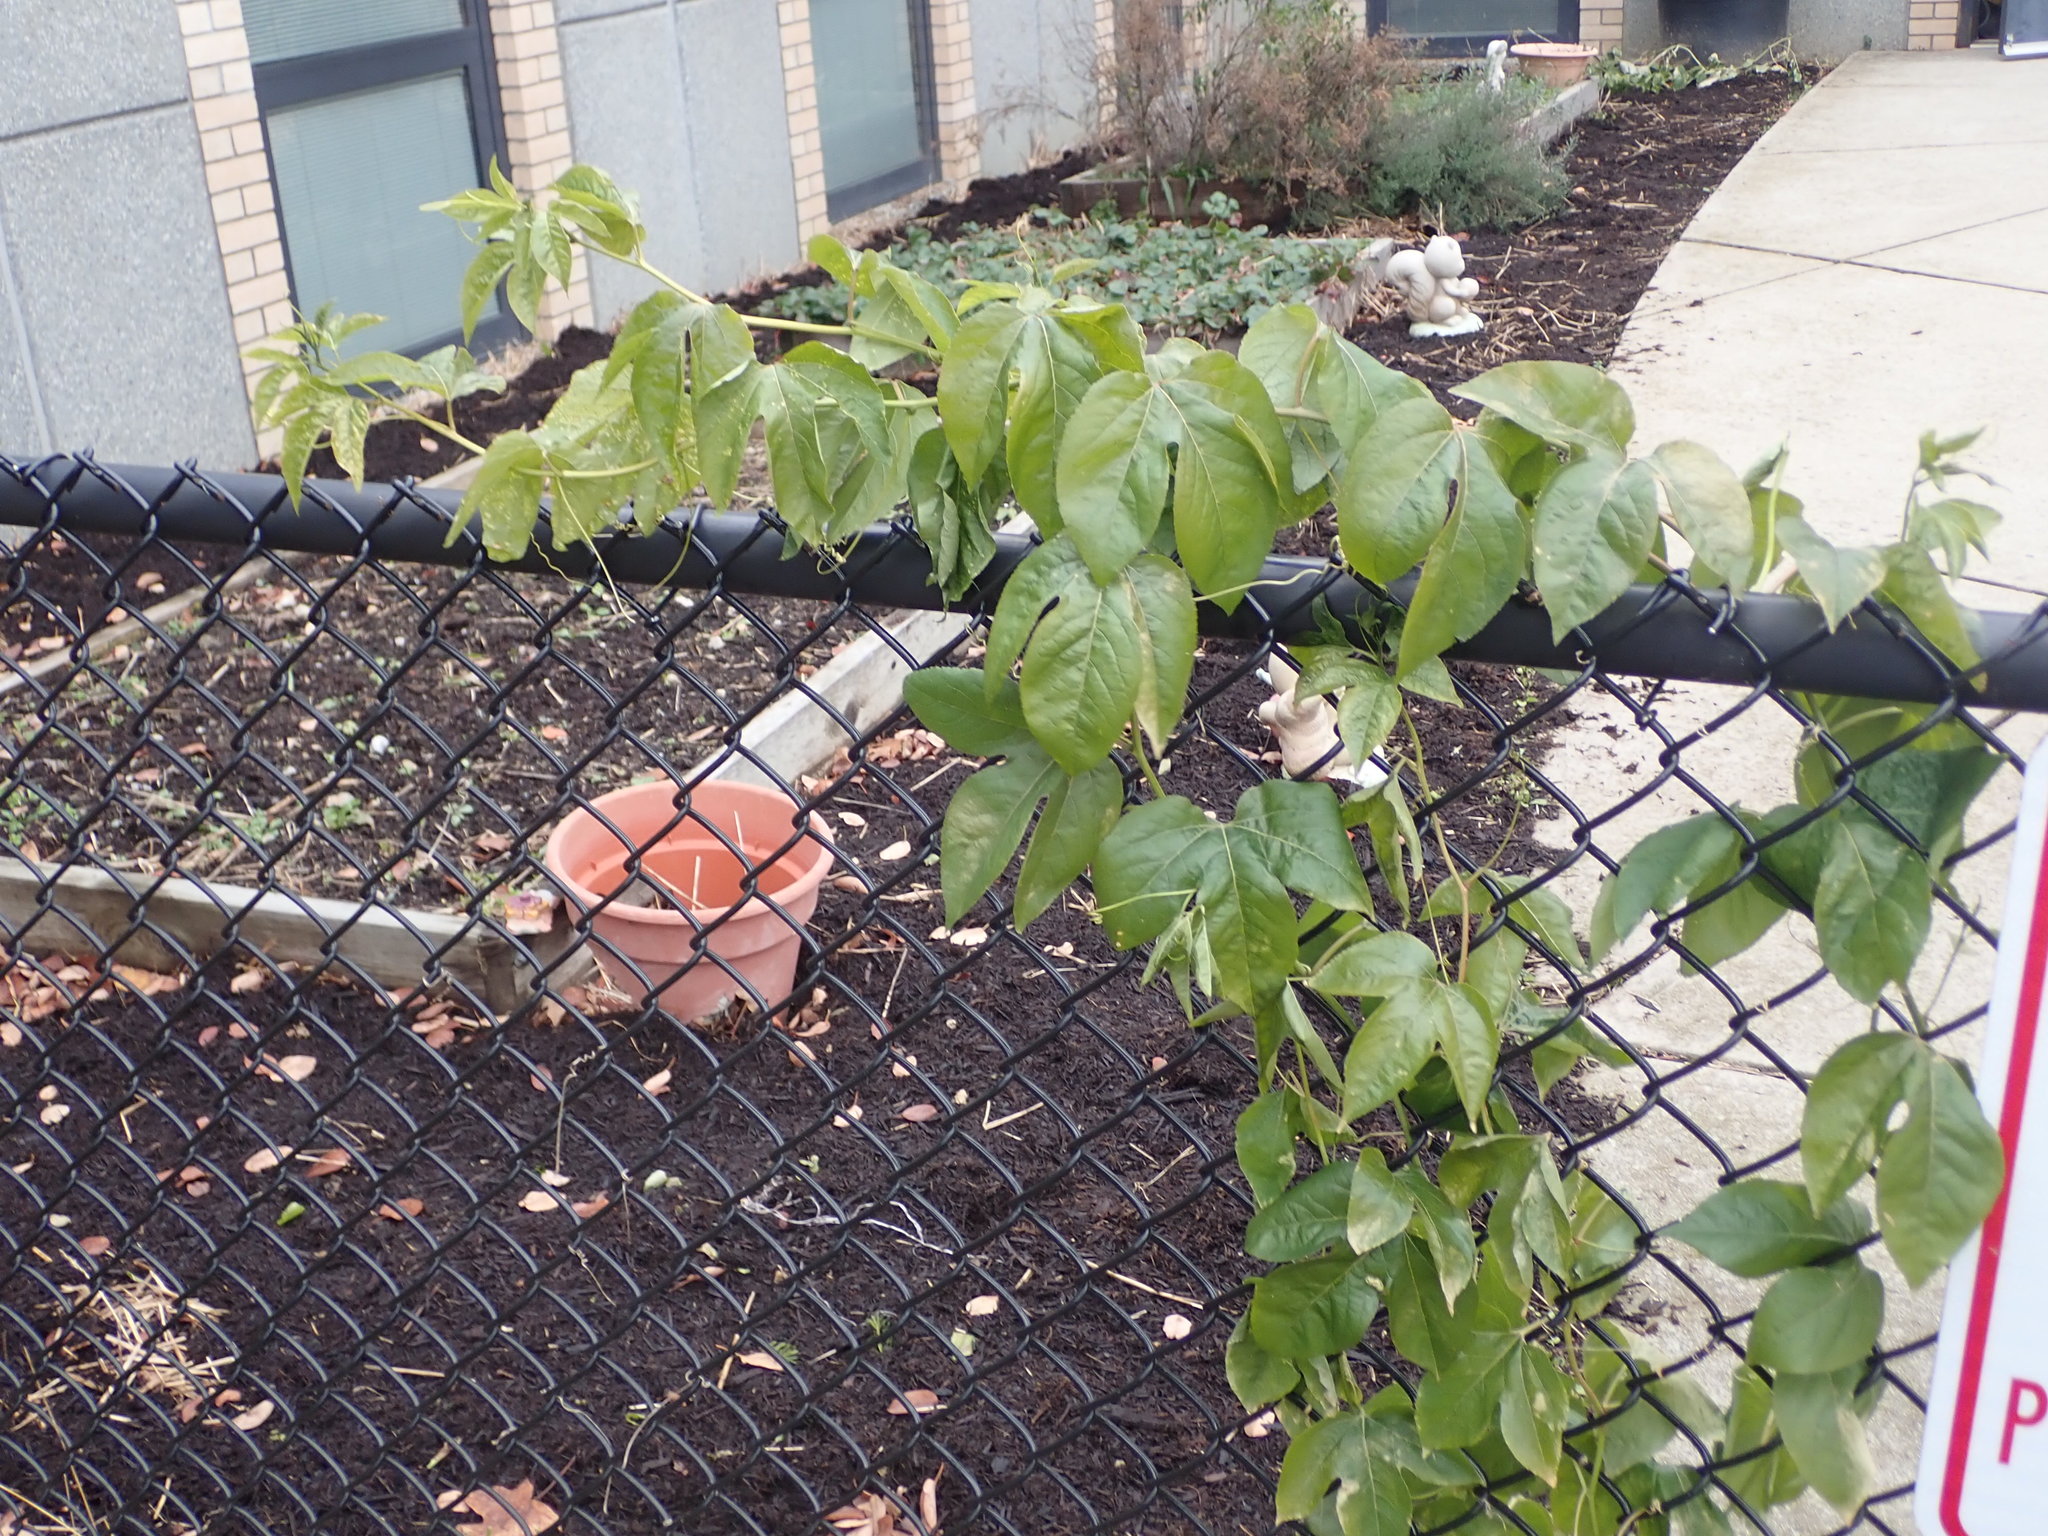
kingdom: Plantae
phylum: Tracheophyta
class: Magnoliopsida
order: Malpighiales
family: Passifloraceae
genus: Passiflora
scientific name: Passiflora incarnata
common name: Apricot-vine
